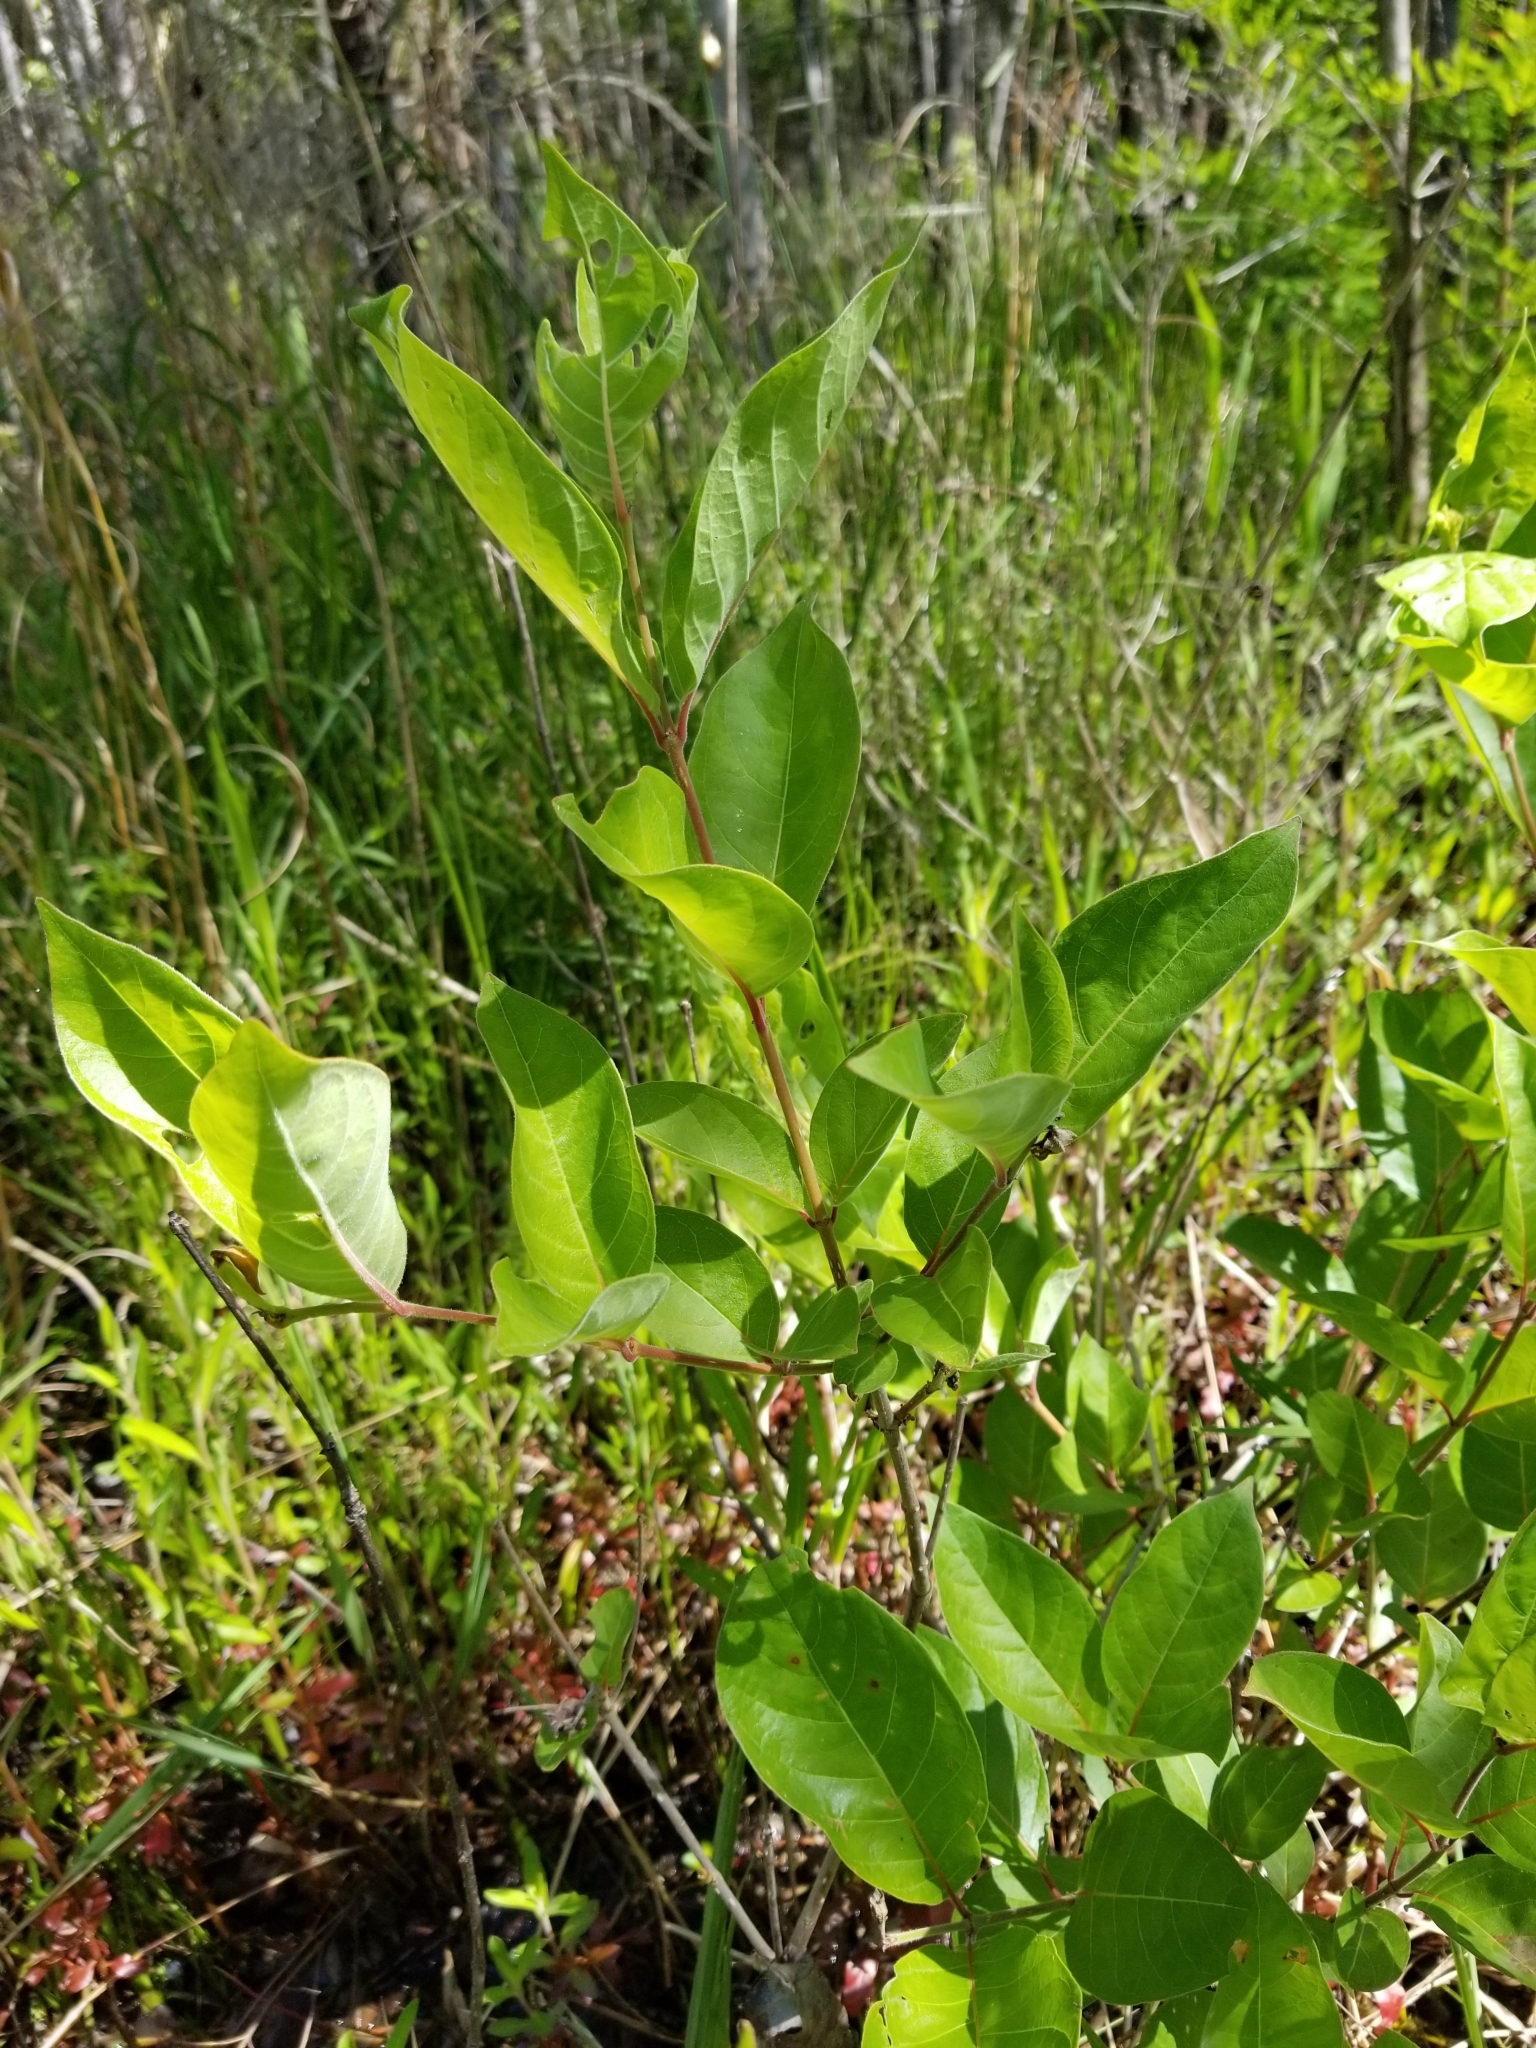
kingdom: Plantae
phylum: Tracheophyta
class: Magnoliopsida
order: Gentianales
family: Rubiaceae
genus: Cephalanthus
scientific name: Cephalanthus occidentalis
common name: Button-willow
